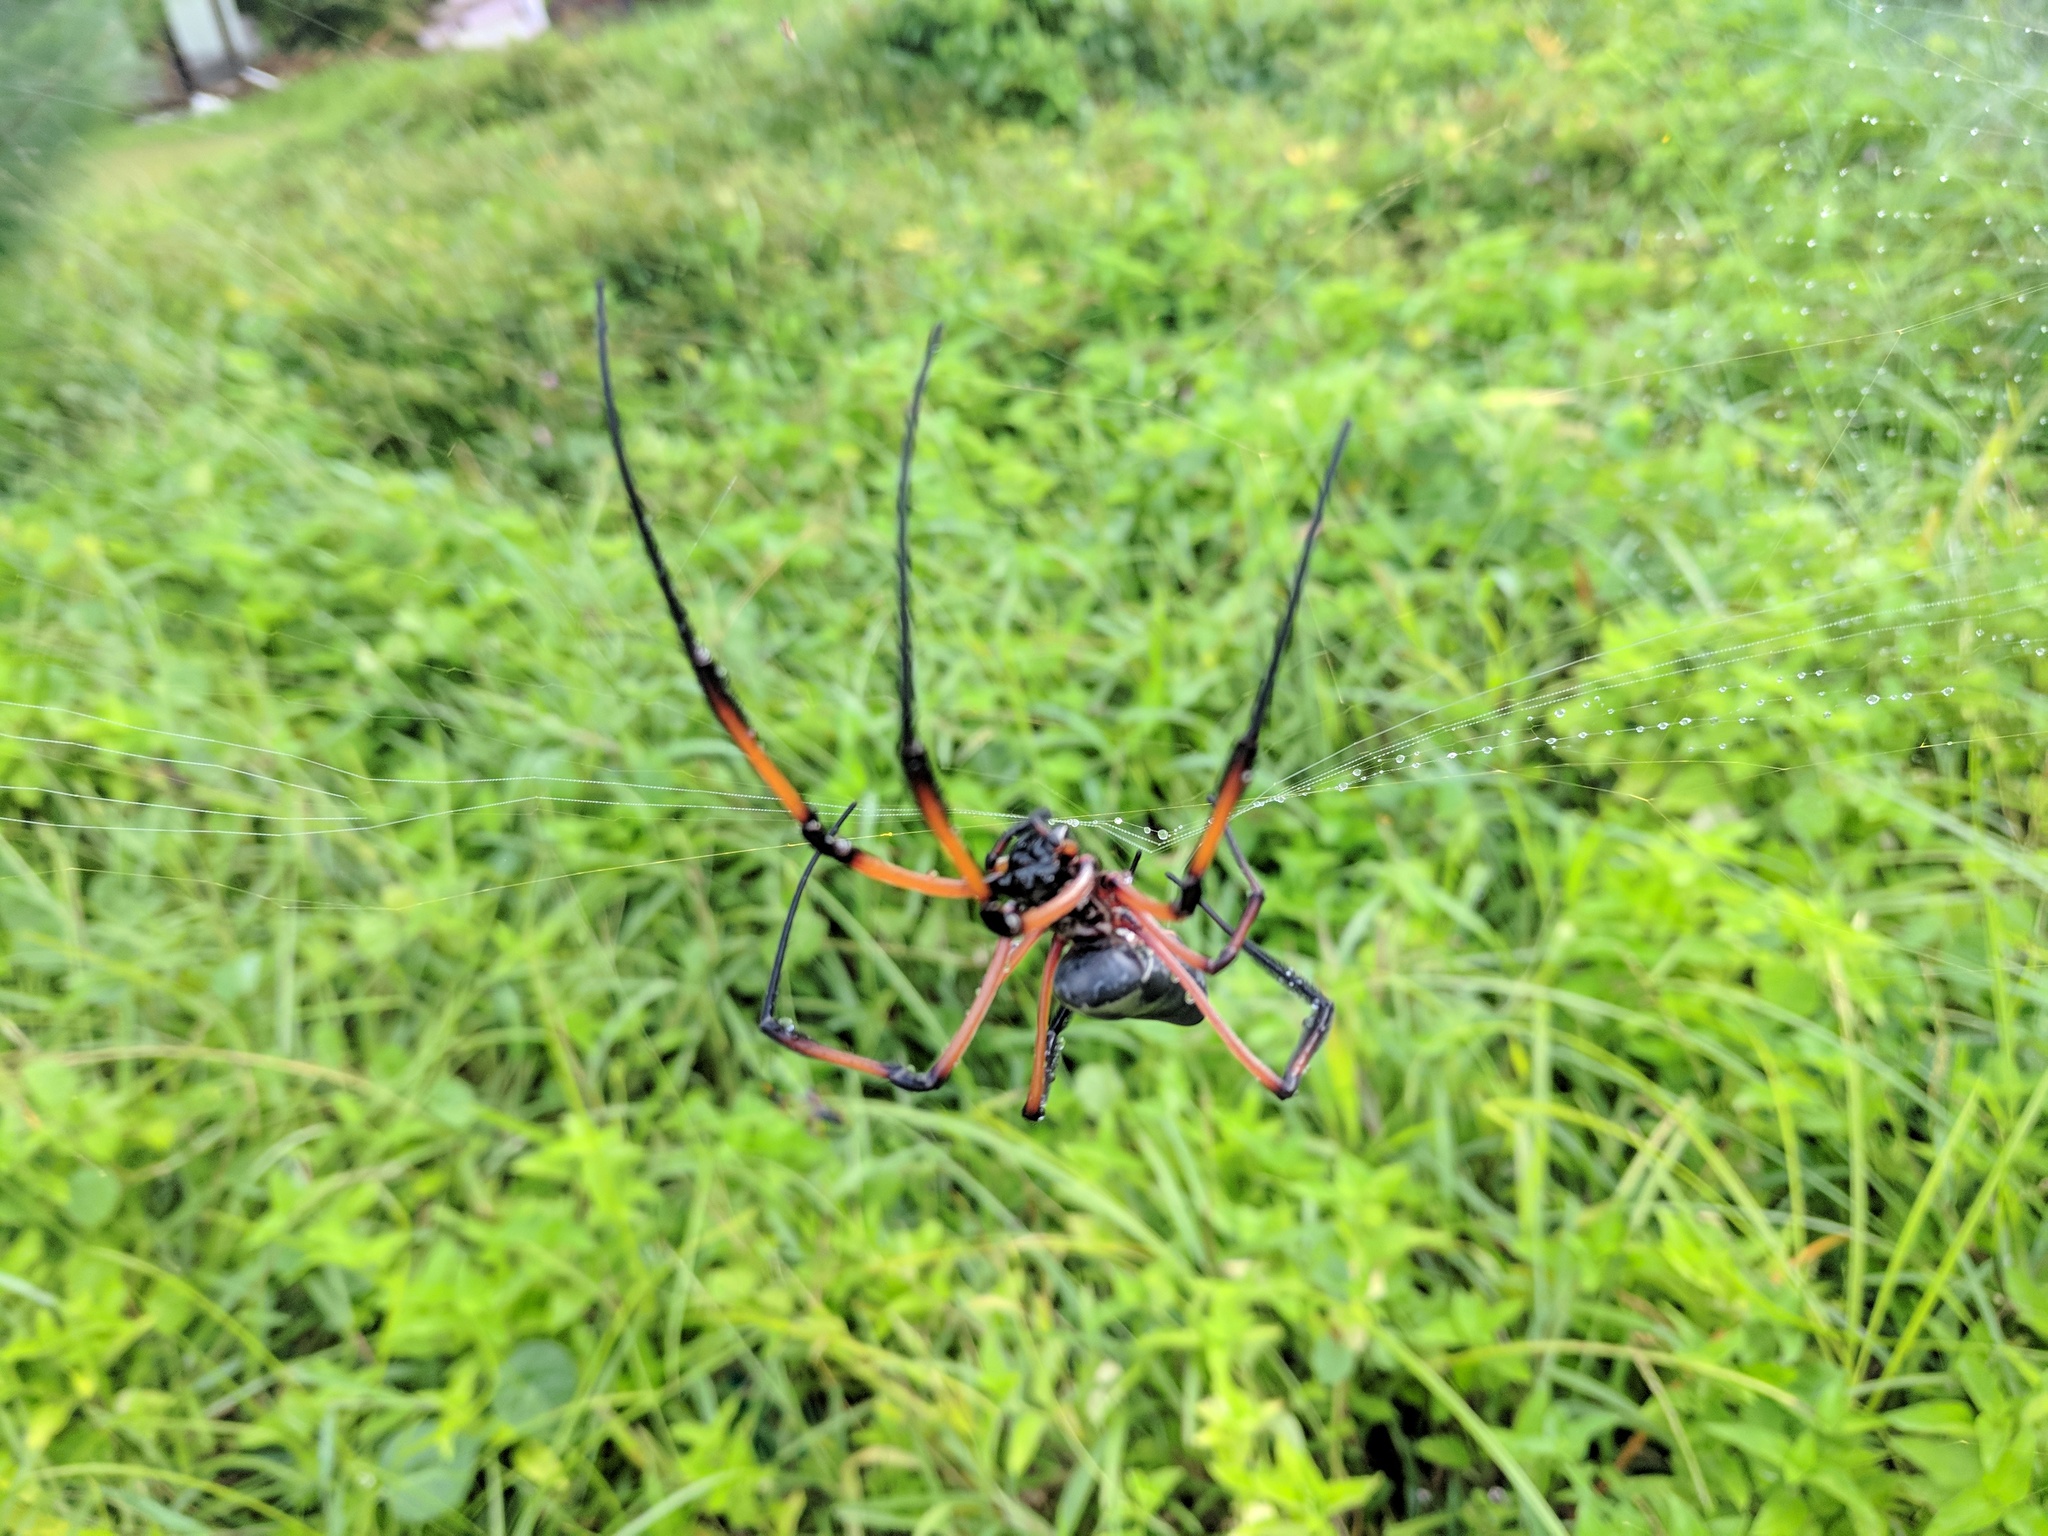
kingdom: Animalia
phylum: Arthropoda
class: Arachnida
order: Araneae
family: Araneidae
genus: Trichonephila
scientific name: Trichonephila inaurata
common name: Red-legged golden orb weaver
